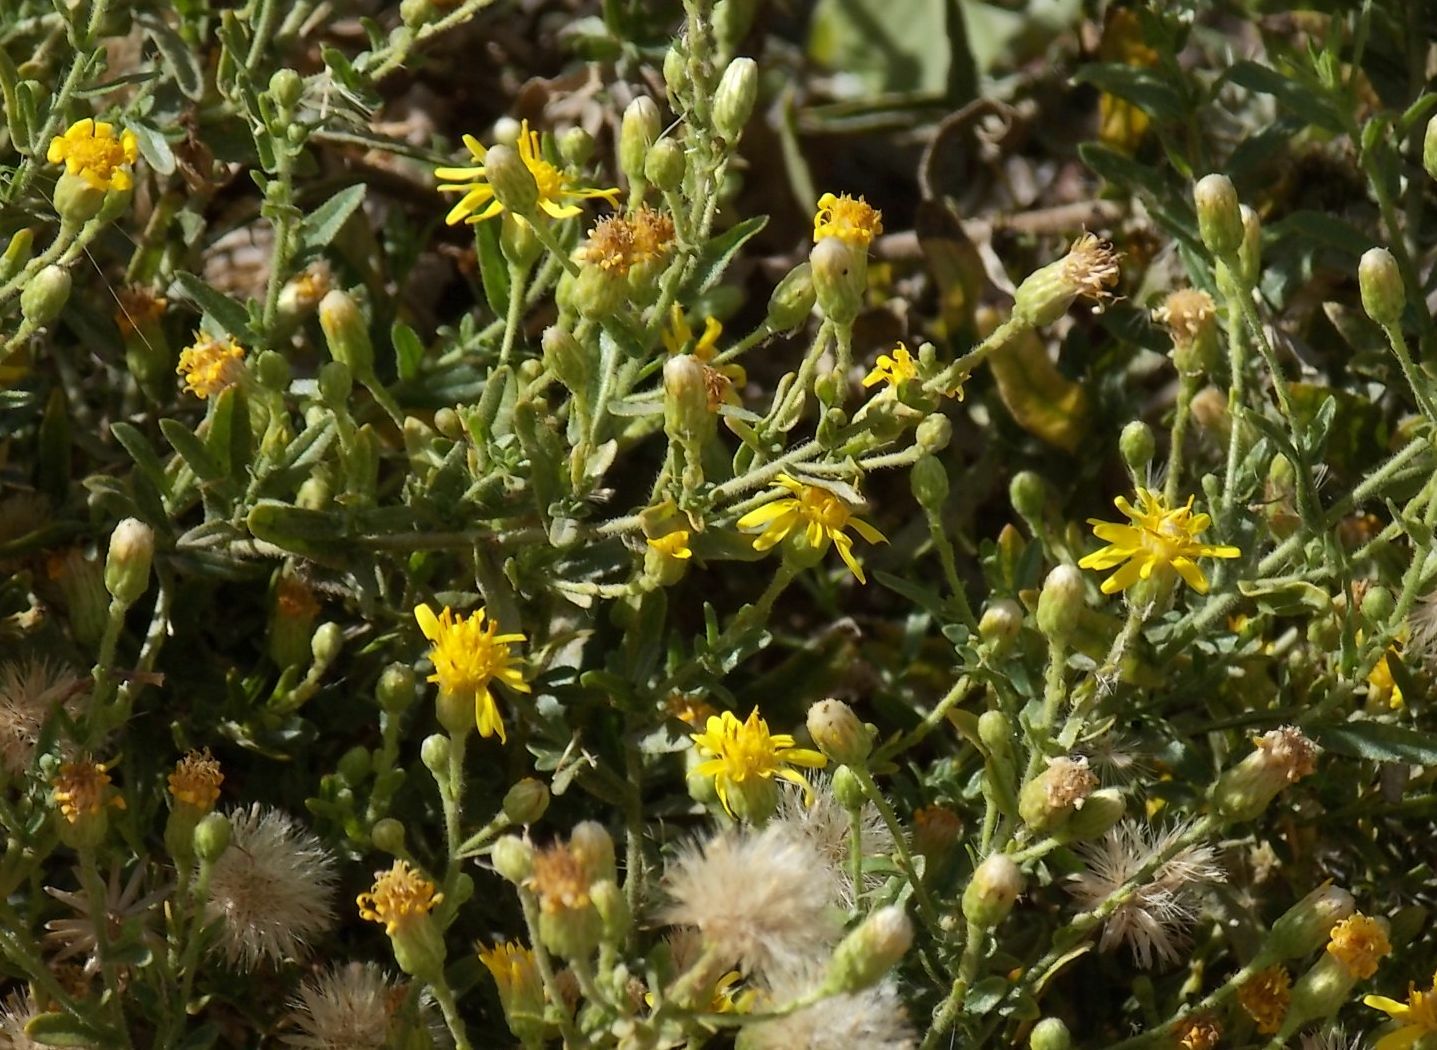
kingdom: Plantae
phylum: Tracheophyta
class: Magnoliopsida
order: Asterales
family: Asteraceae
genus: Dittrichia
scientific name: Dittrichia viscosa
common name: Woody fleabane
